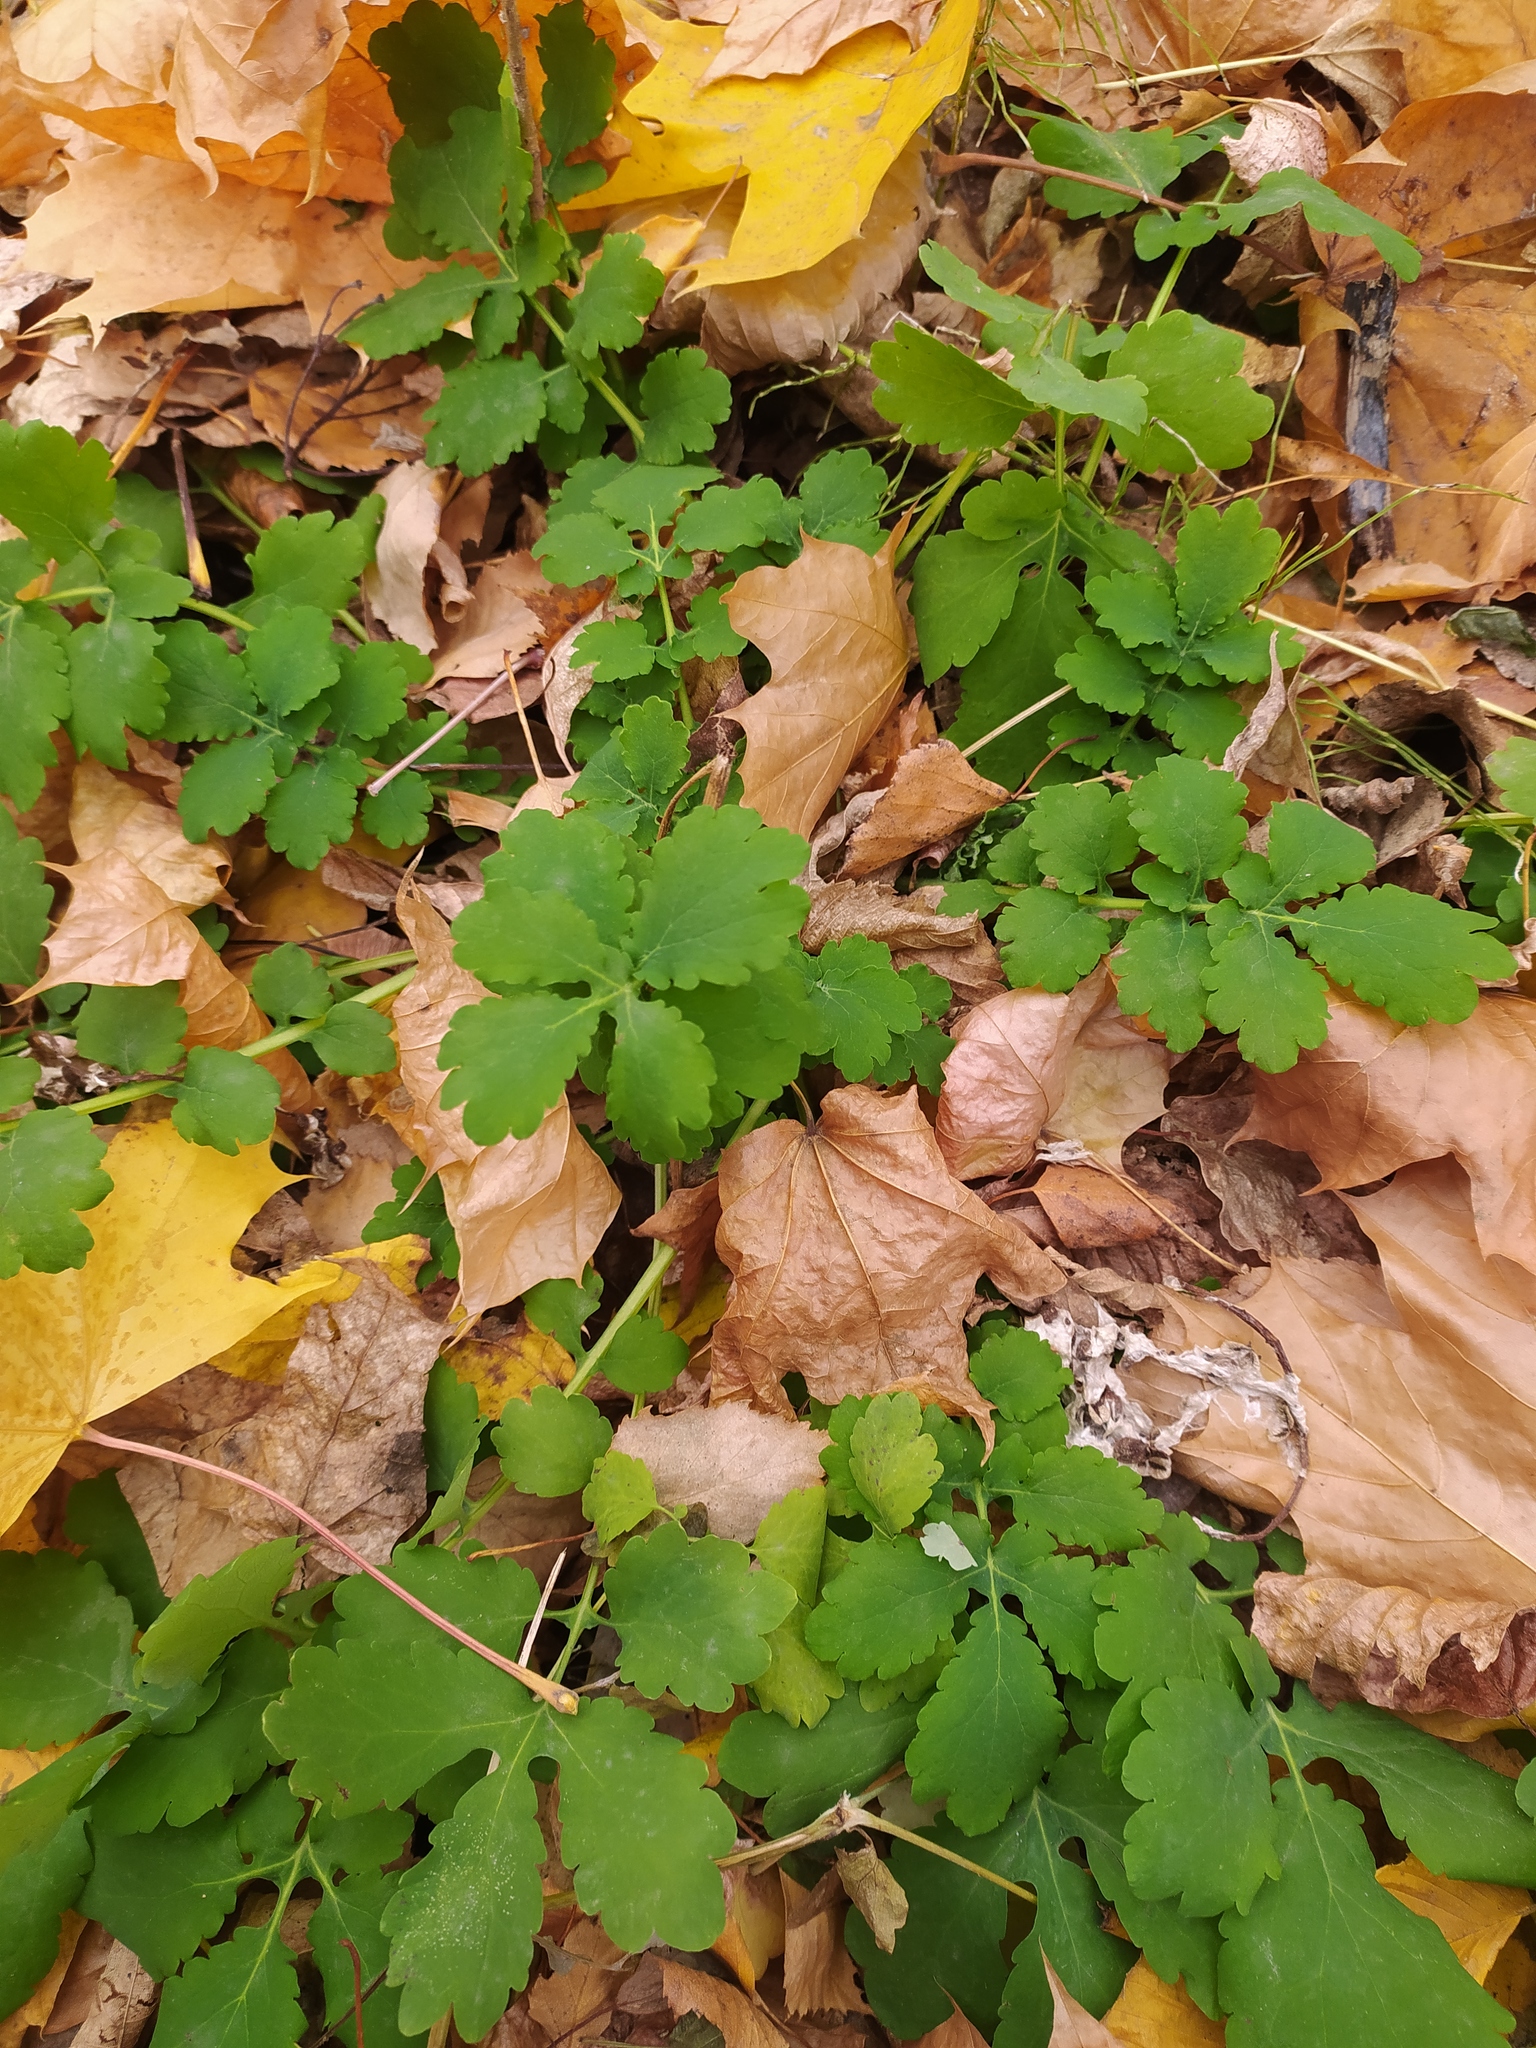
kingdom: Plantae
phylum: Tracheophyta
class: Magnoliopsida
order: Ranunculales
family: Papaveraceae
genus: Chelidonium
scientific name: Chelidonium majus
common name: Greater celandine
